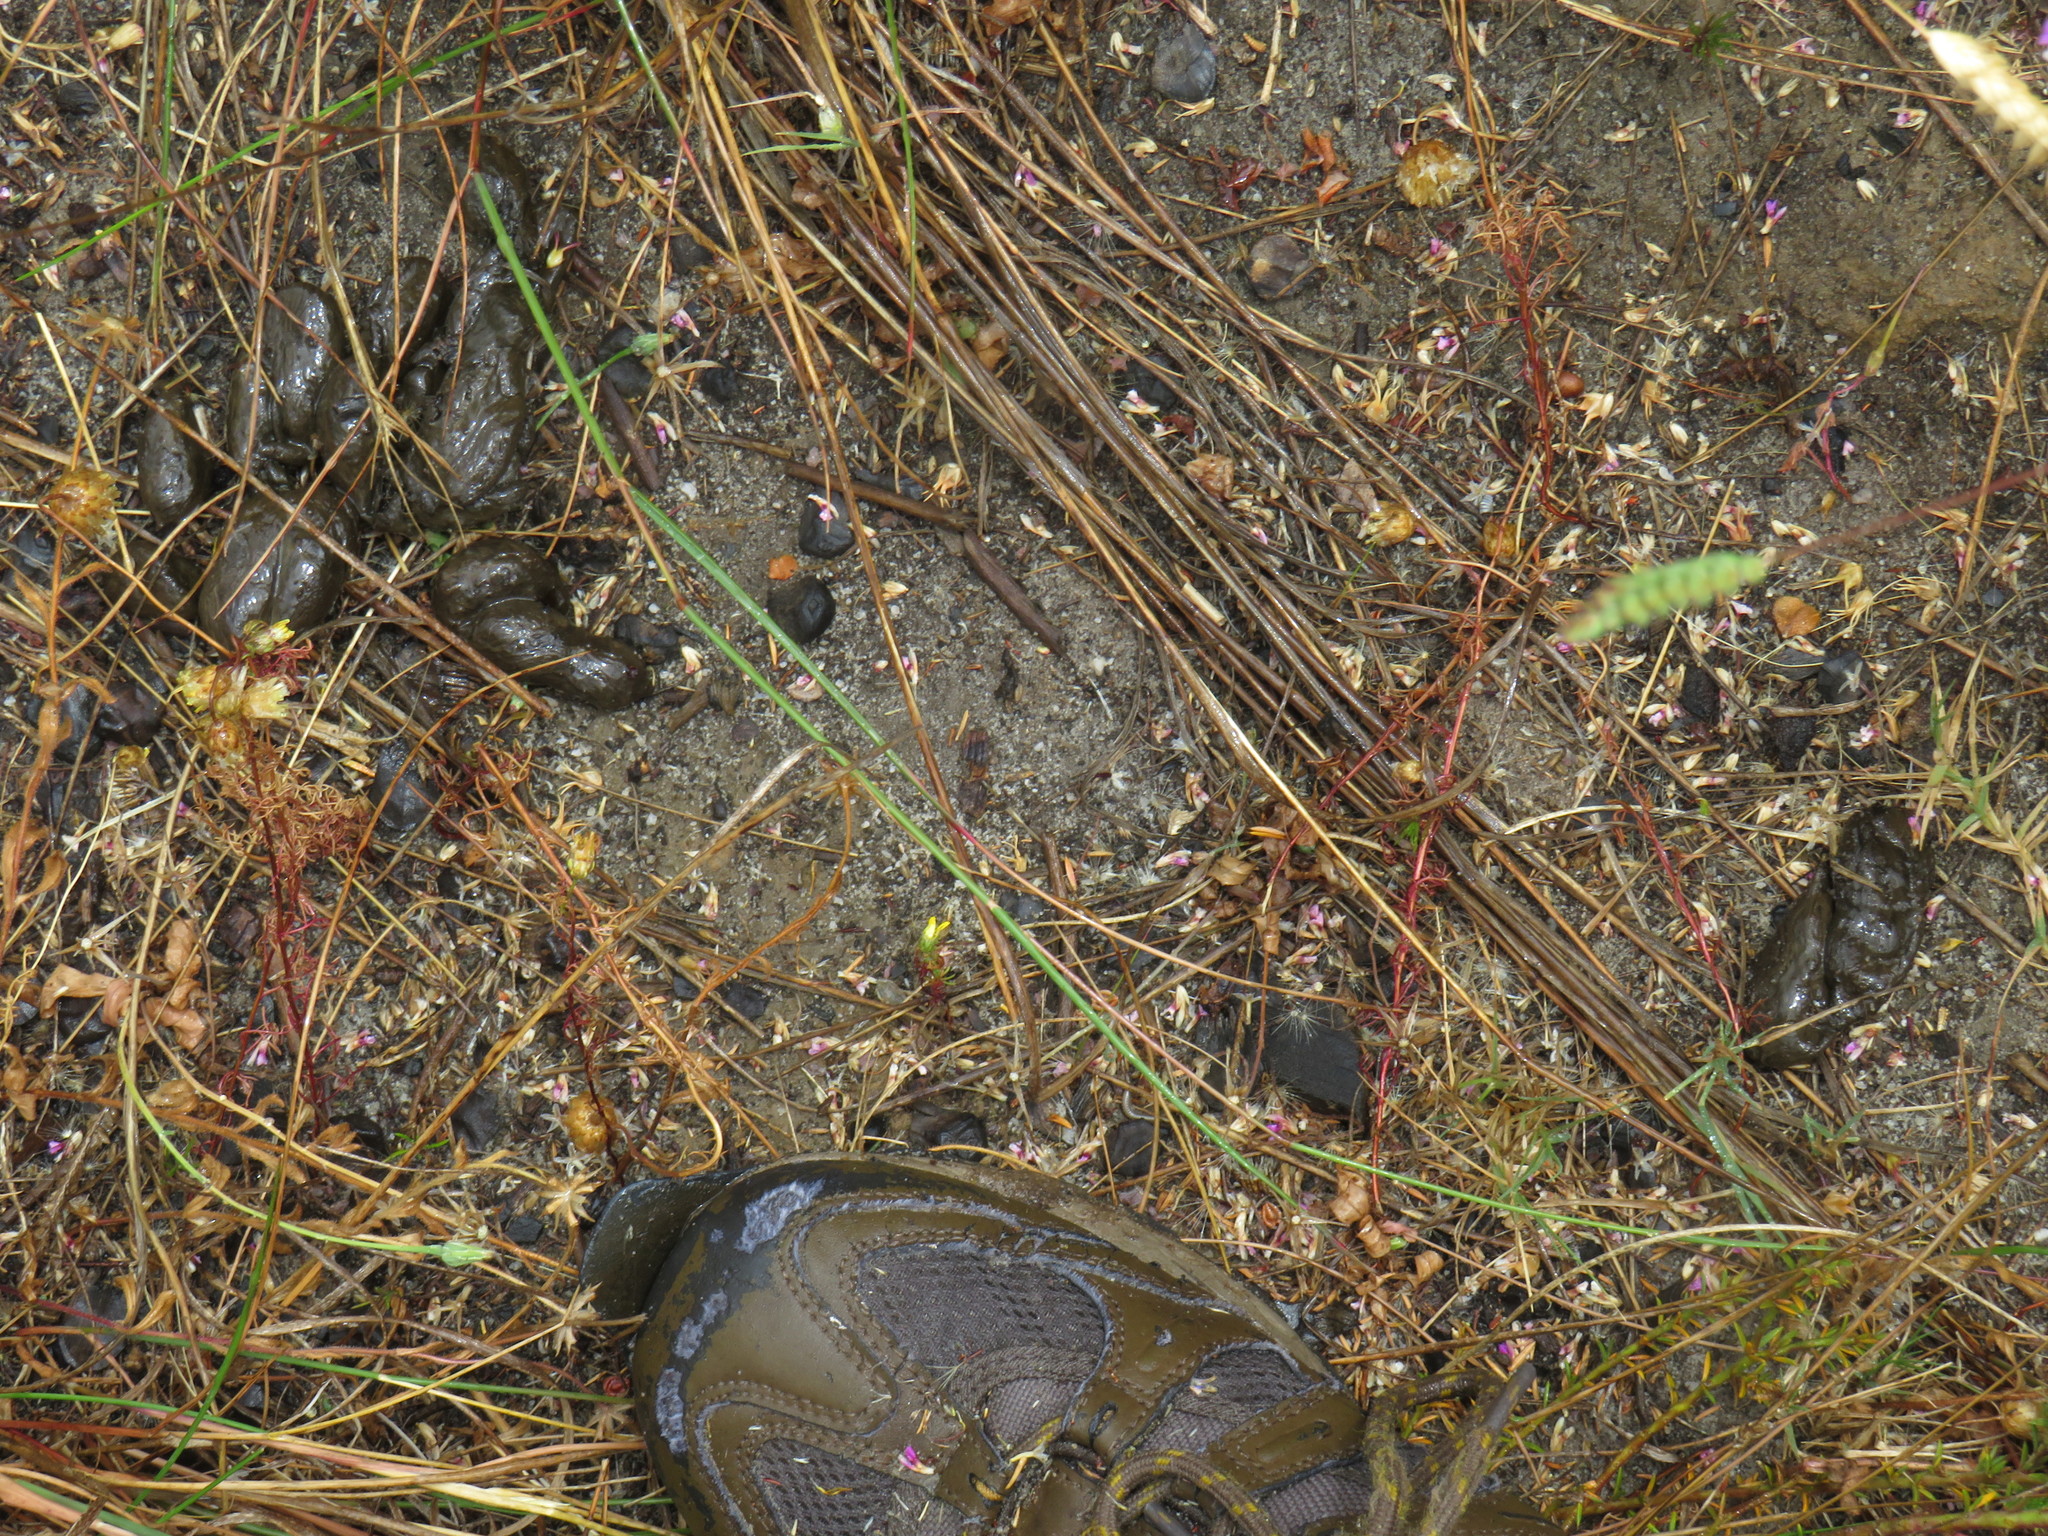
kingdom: Animalia
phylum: Chordata
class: Mammalia
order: Rodentia
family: Hystricidae
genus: Hystrix
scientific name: Hystrix africaeaustralis
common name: Cape porcupine
